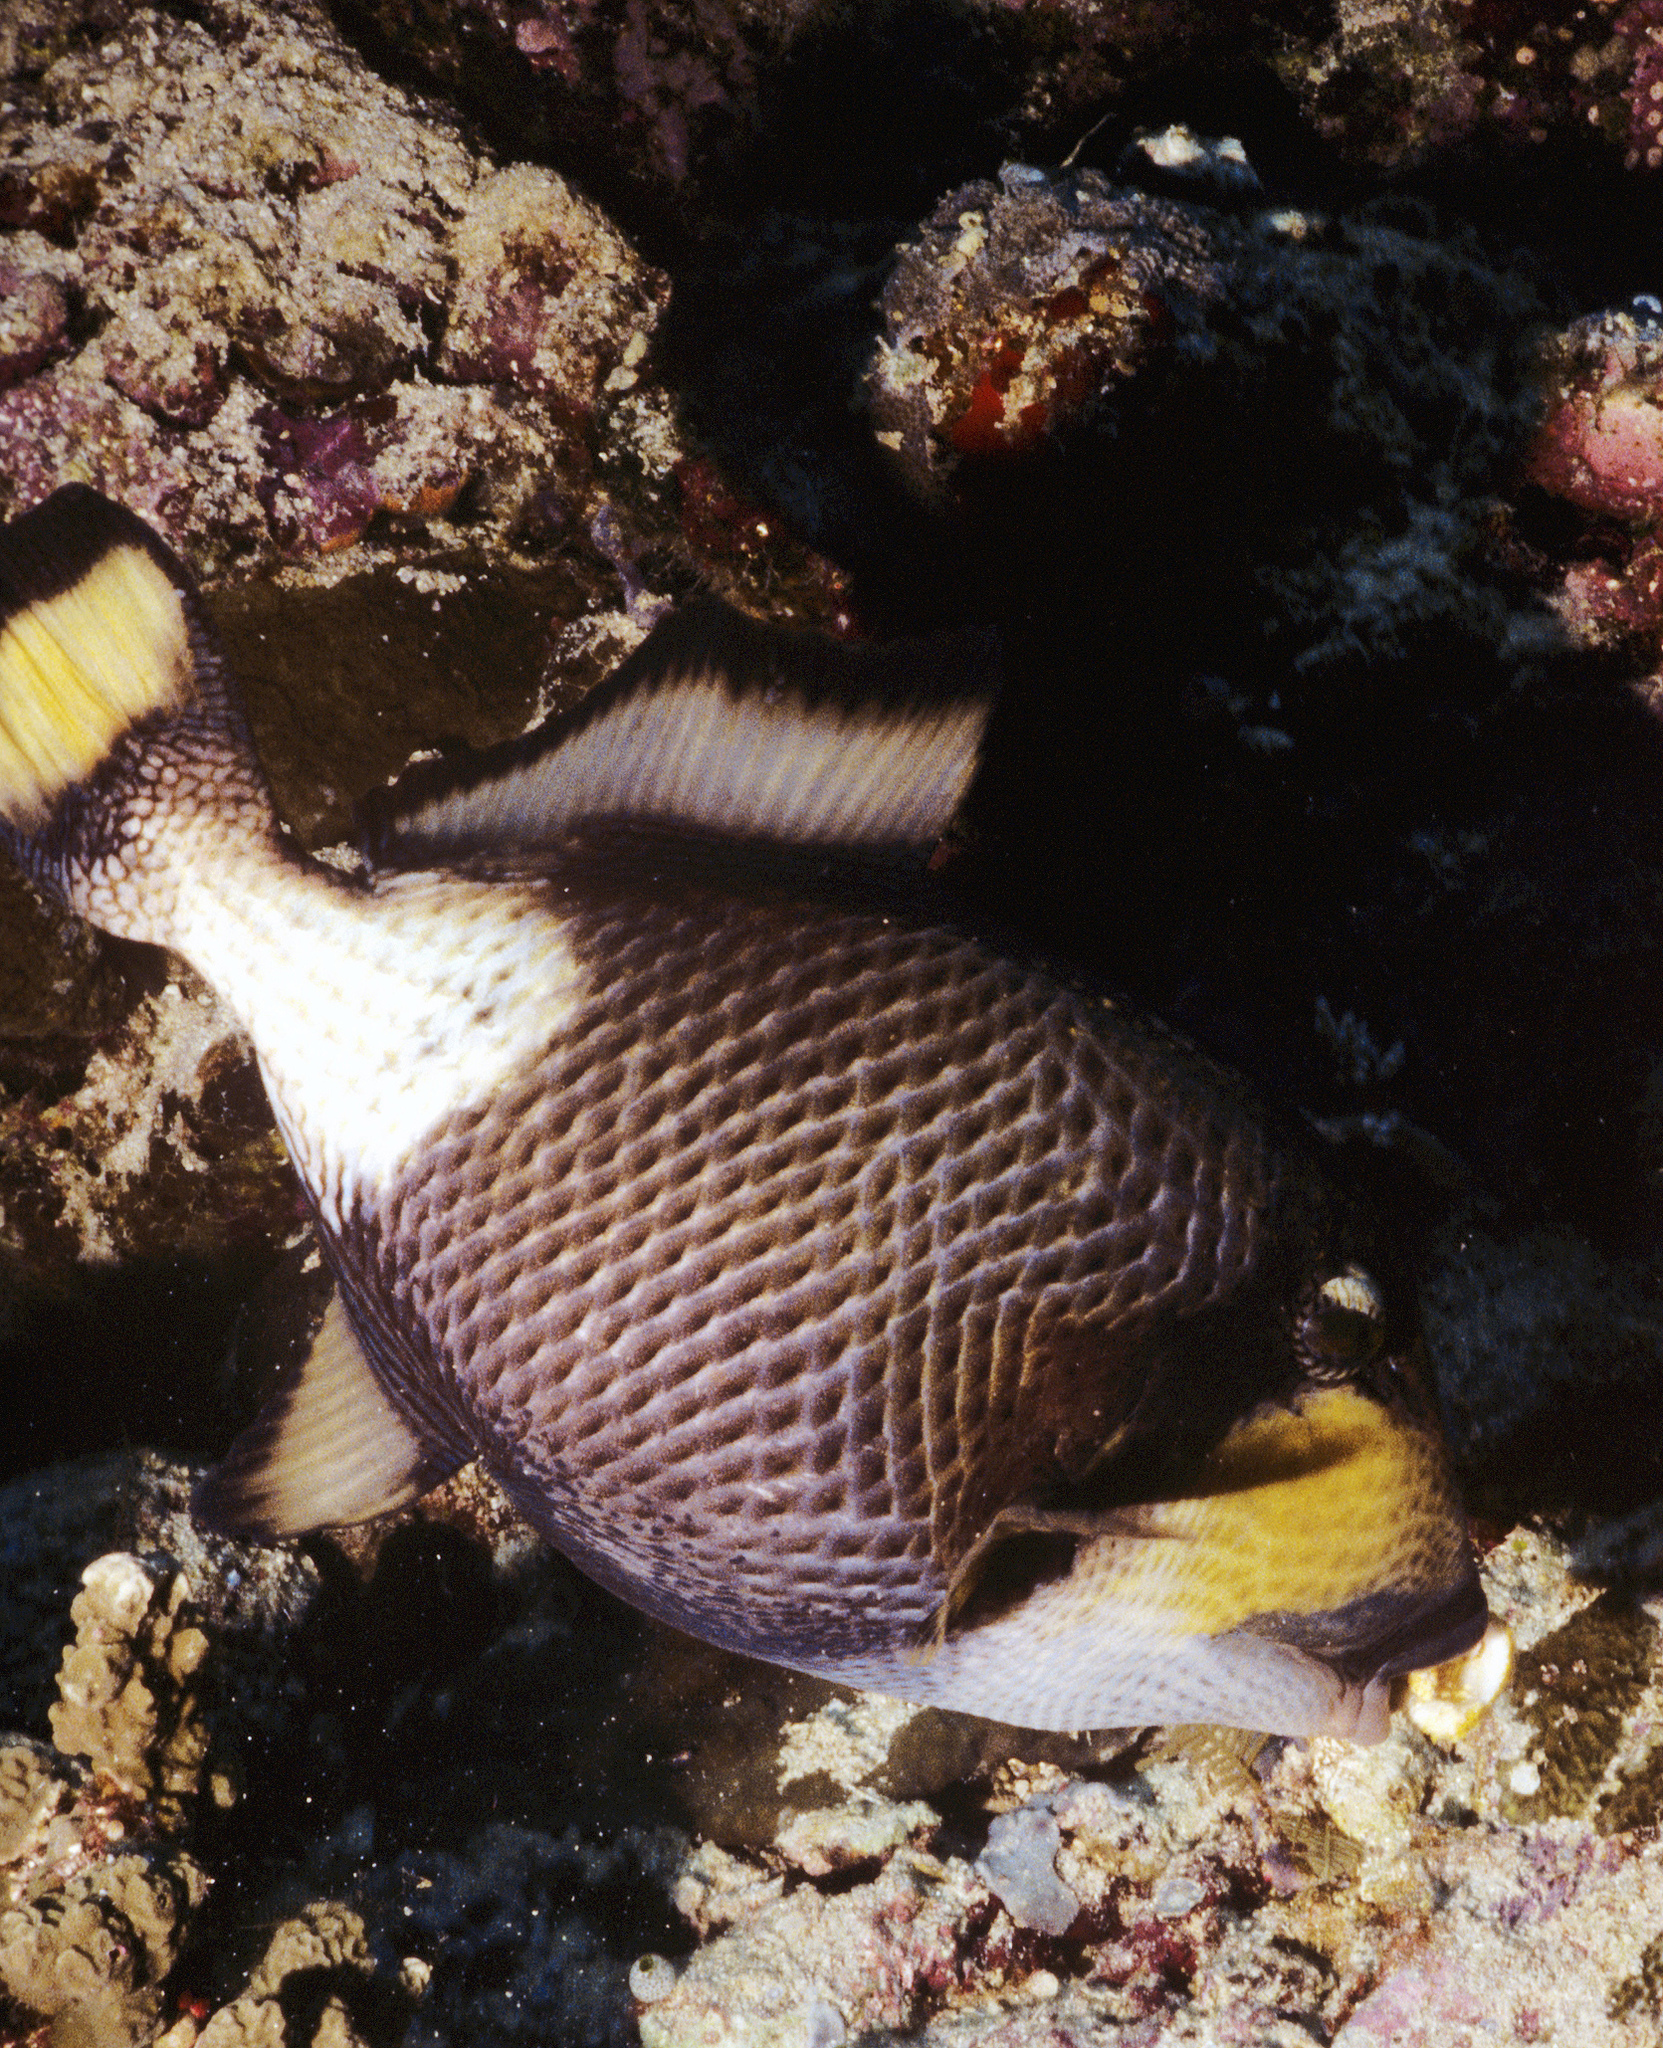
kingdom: Animalia
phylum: Chordata
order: Tetraodontiformes
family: Balistidae
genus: Balistoides
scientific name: Balistoides viridescens
